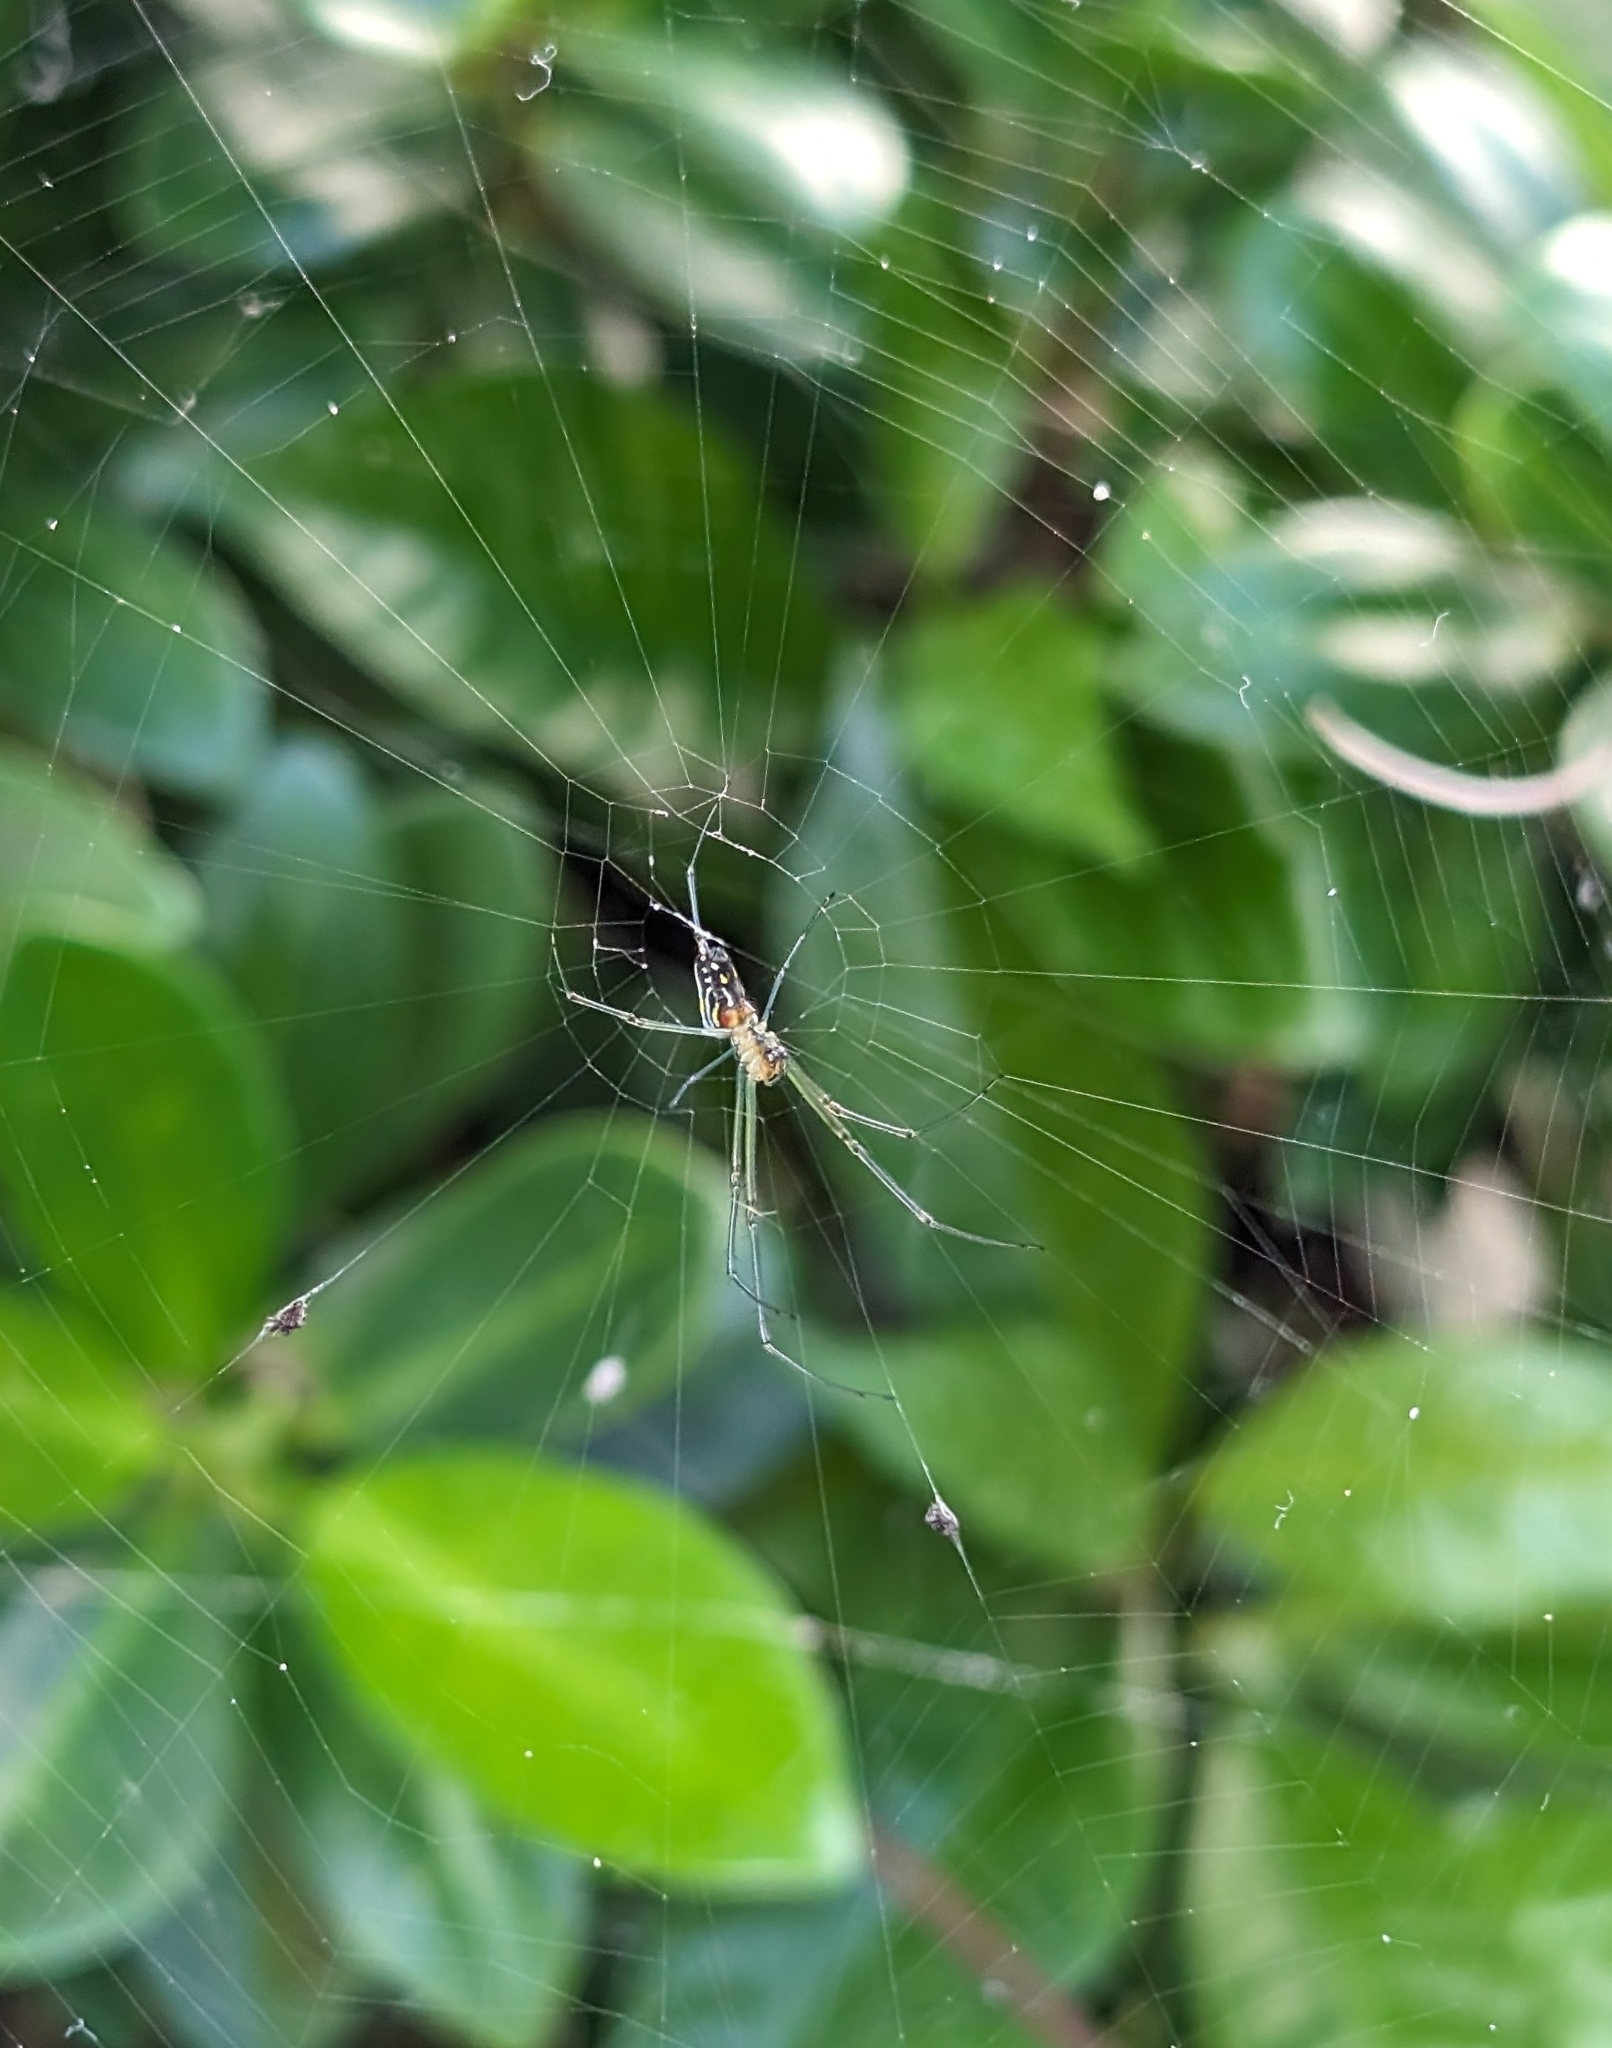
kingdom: Animalia
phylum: Arthropoda
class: Arachnida
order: Araneae
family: Tetragnathidae
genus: Leucauge
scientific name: Leucauge argyra
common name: Longjawed orb weavers
